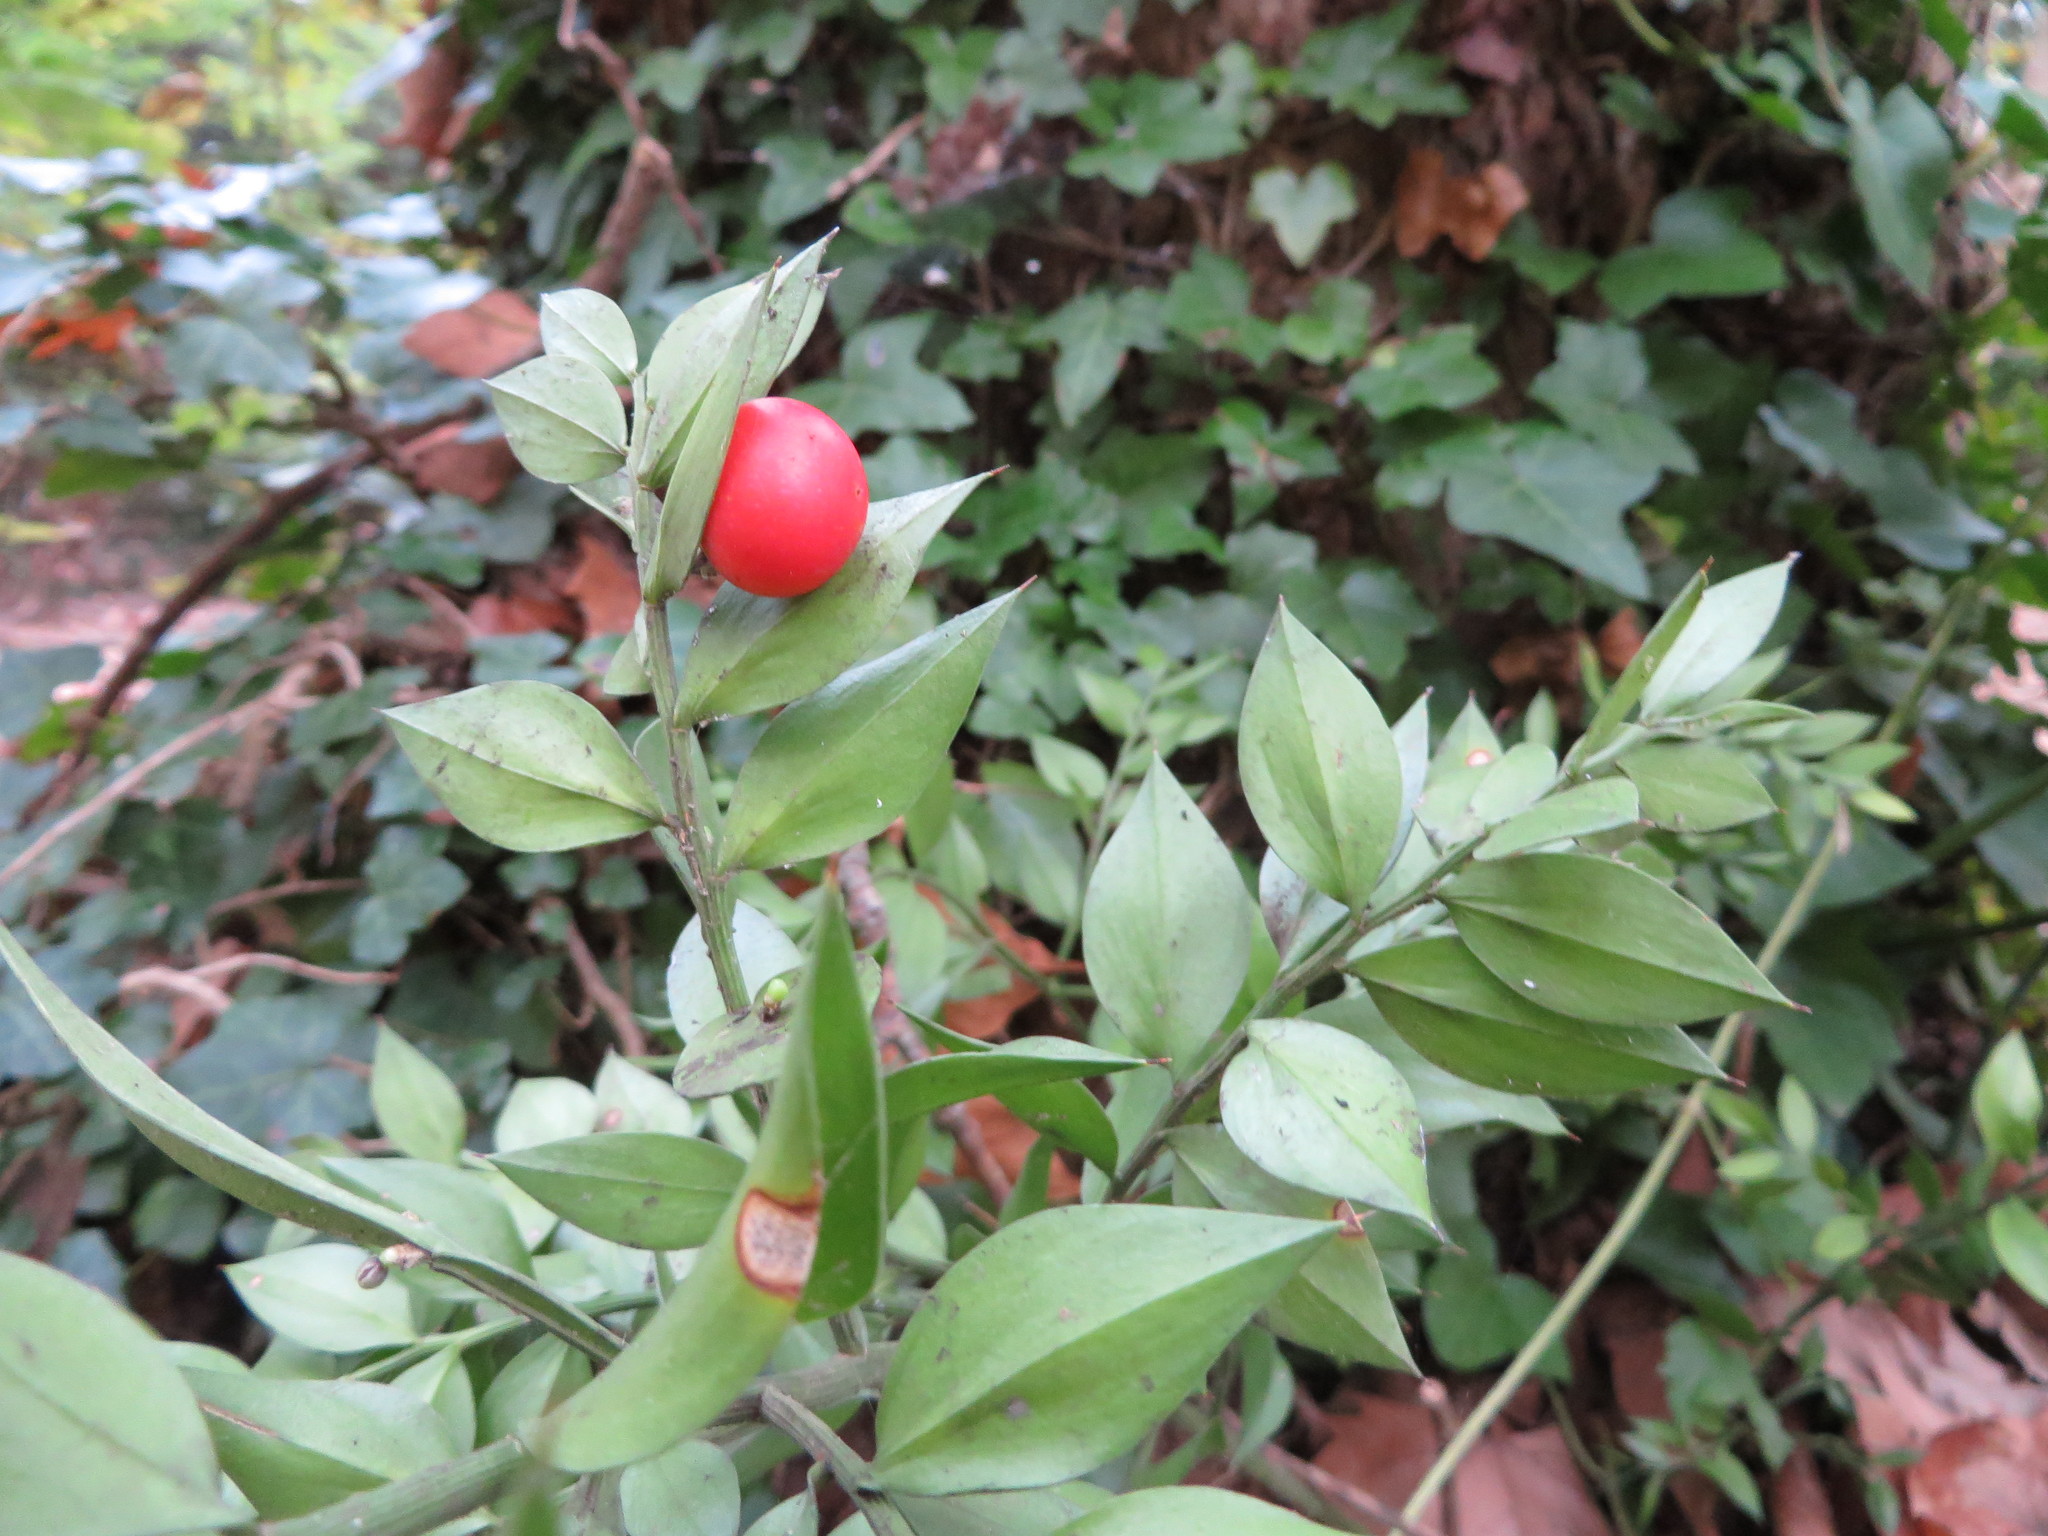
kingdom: Plantae
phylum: Tracheophyta
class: Liliopsida
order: Asparagales
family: Asparagaceae
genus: Ruscus
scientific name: Ruscus aculeatus
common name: Butcher's-broom
